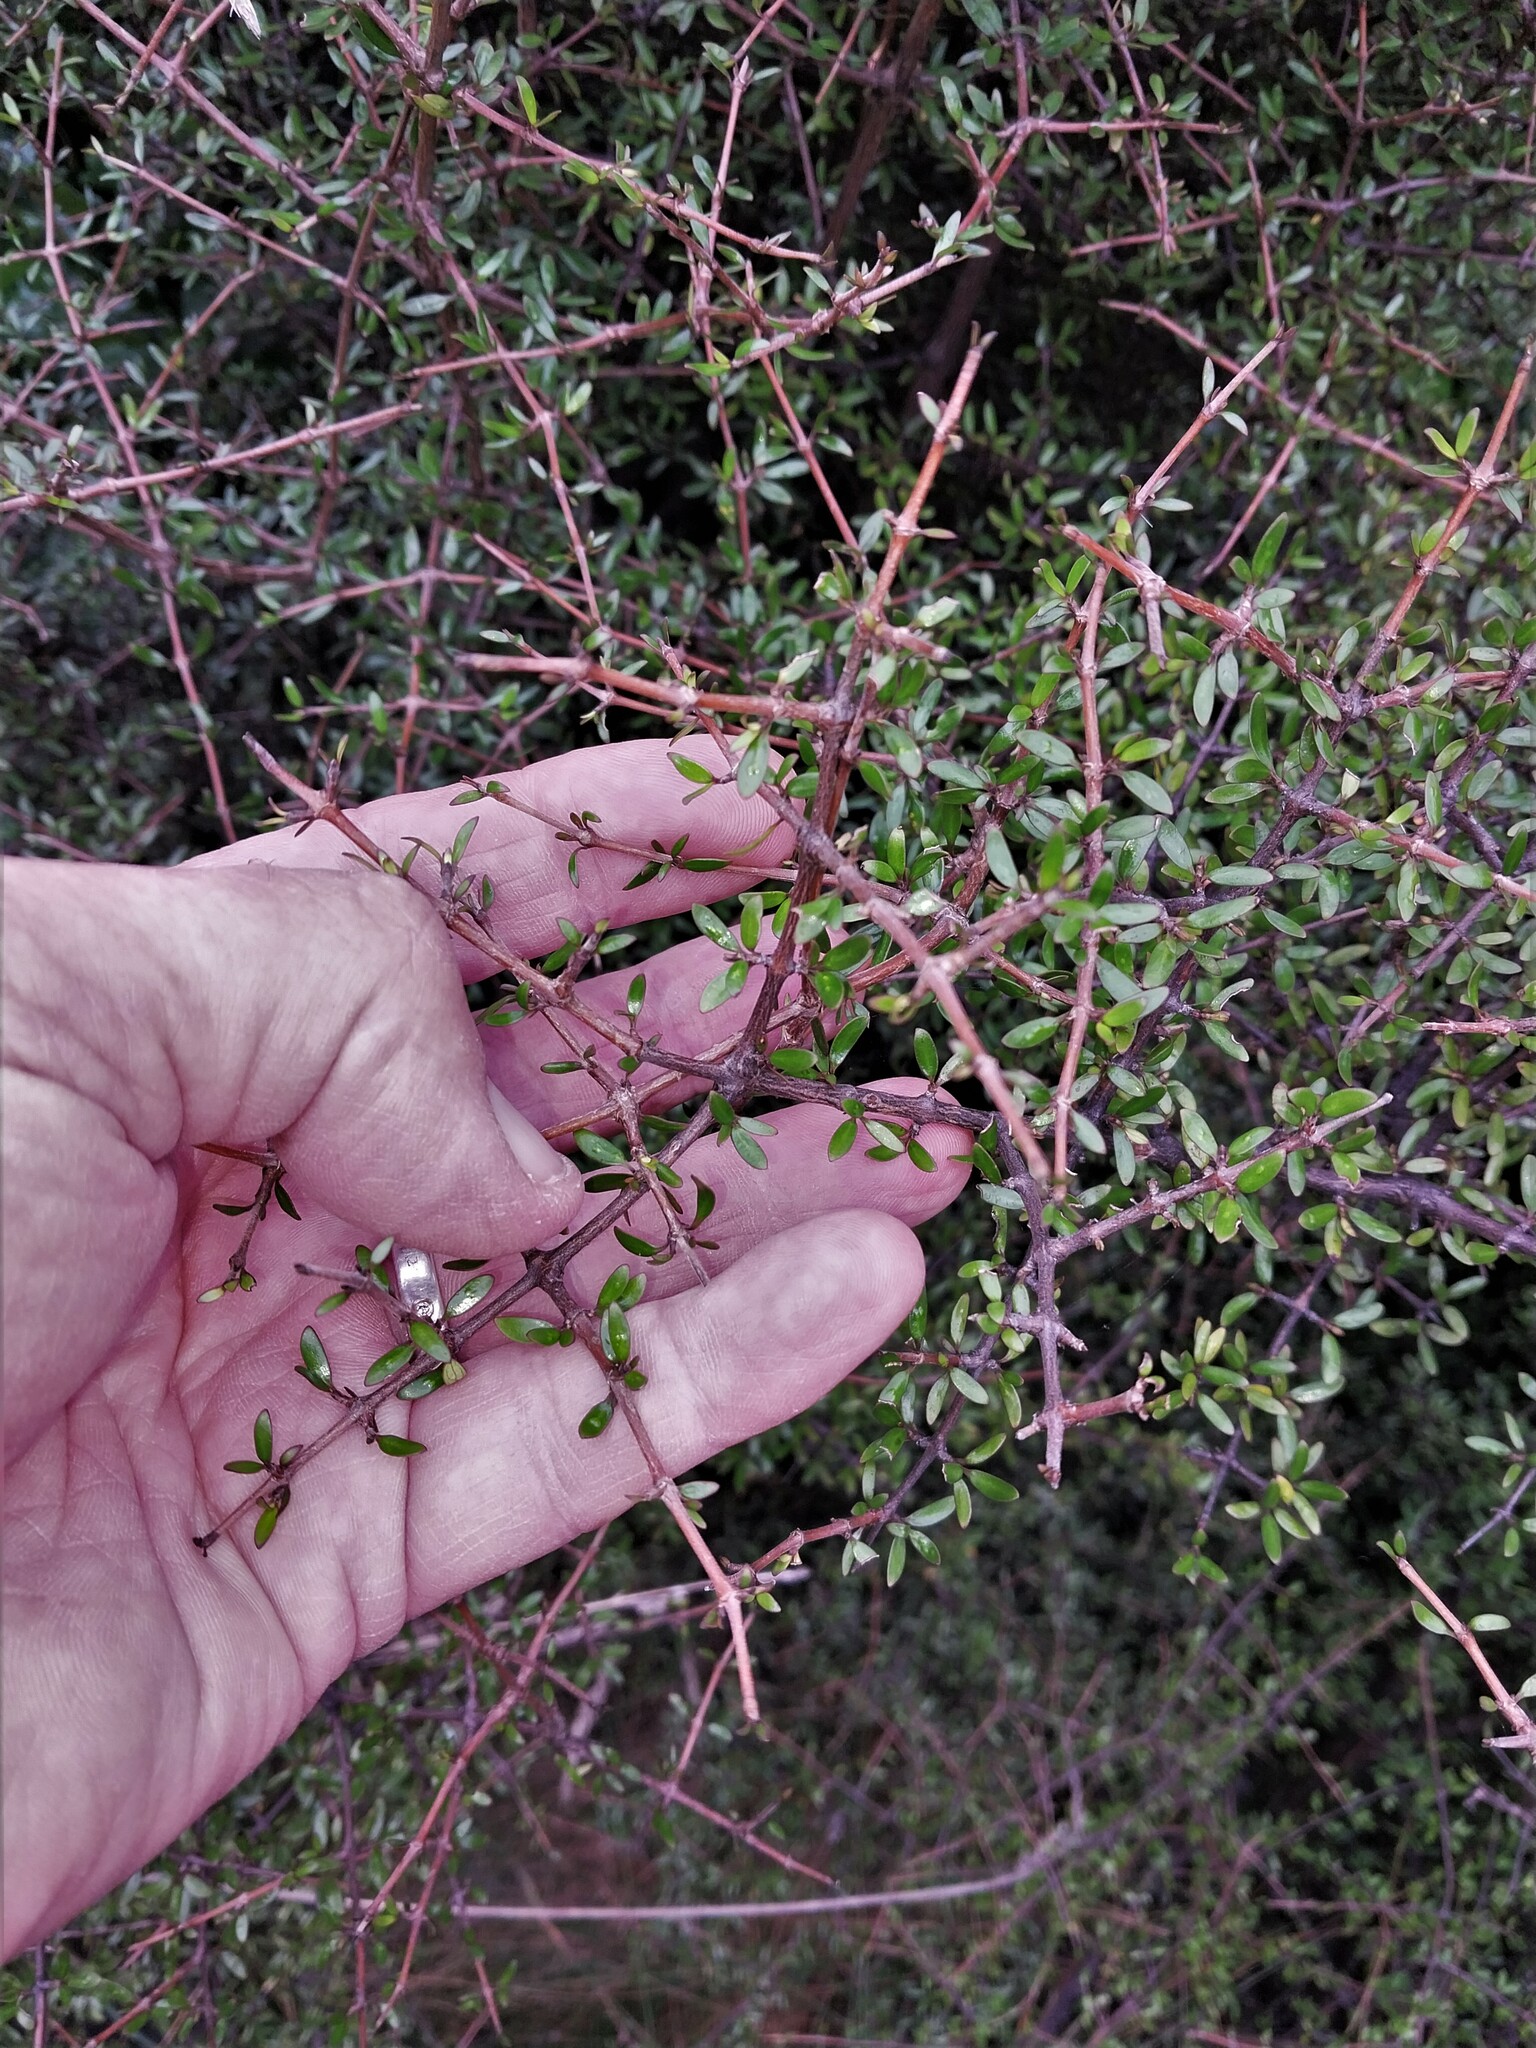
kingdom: Plantae
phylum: Tracheophyta
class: Magnoliopsida
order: Gentianales
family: Rubiaceae
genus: Coprosma
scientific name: Coprosma propinqua
